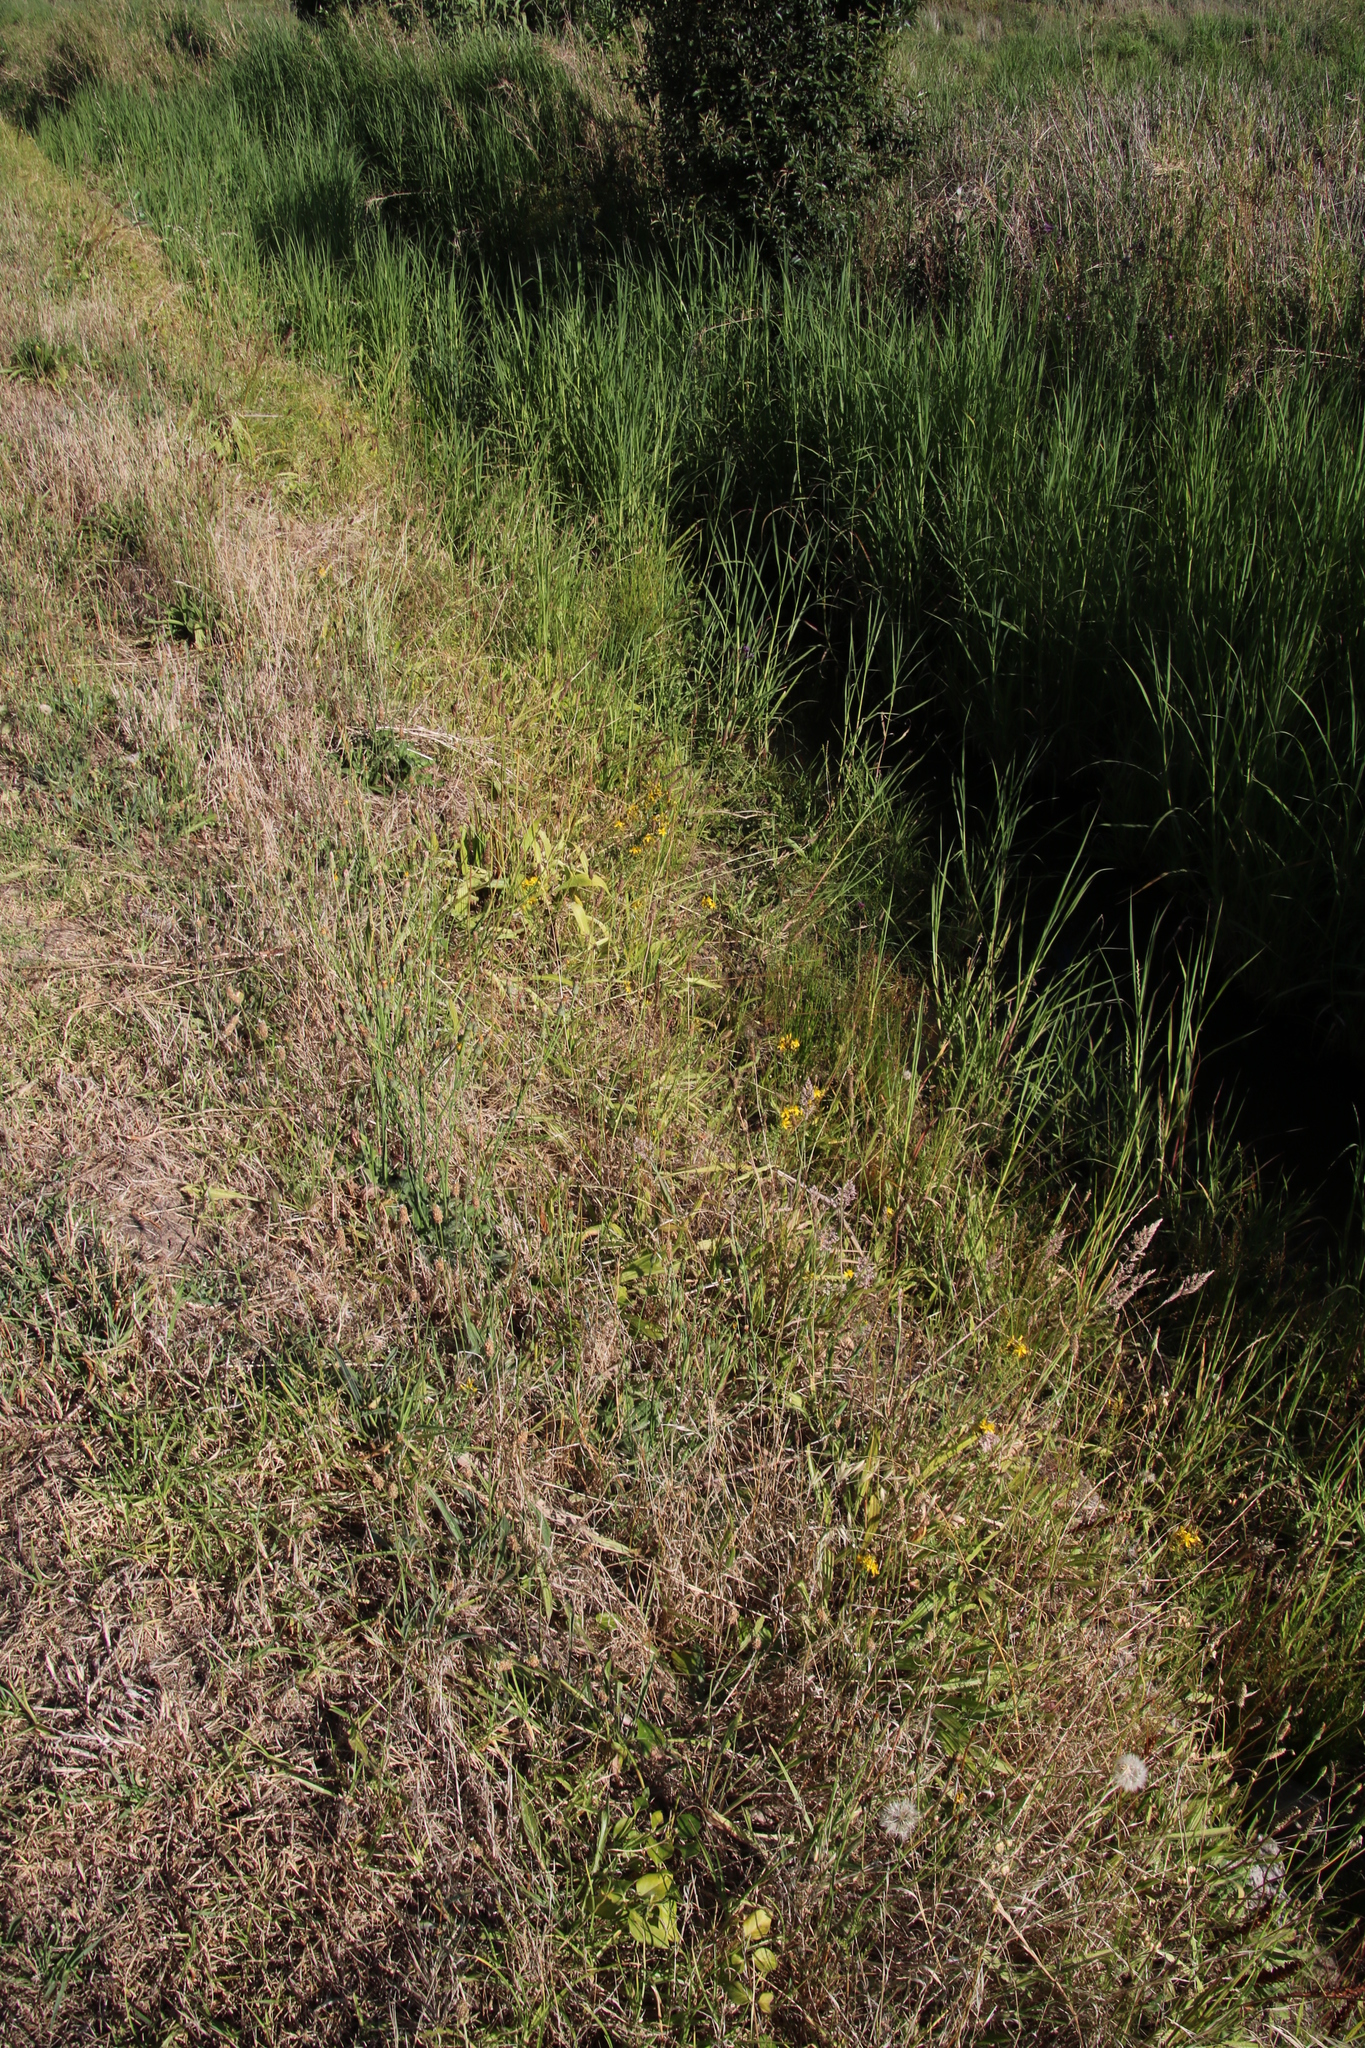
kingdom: Plantae
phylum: Tracheophyta
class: Magnoliopsida
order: Malpighiales
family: Hypericaceae
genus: Hypericum
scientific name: Hypericum perforatum
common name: Common st. johnswort
